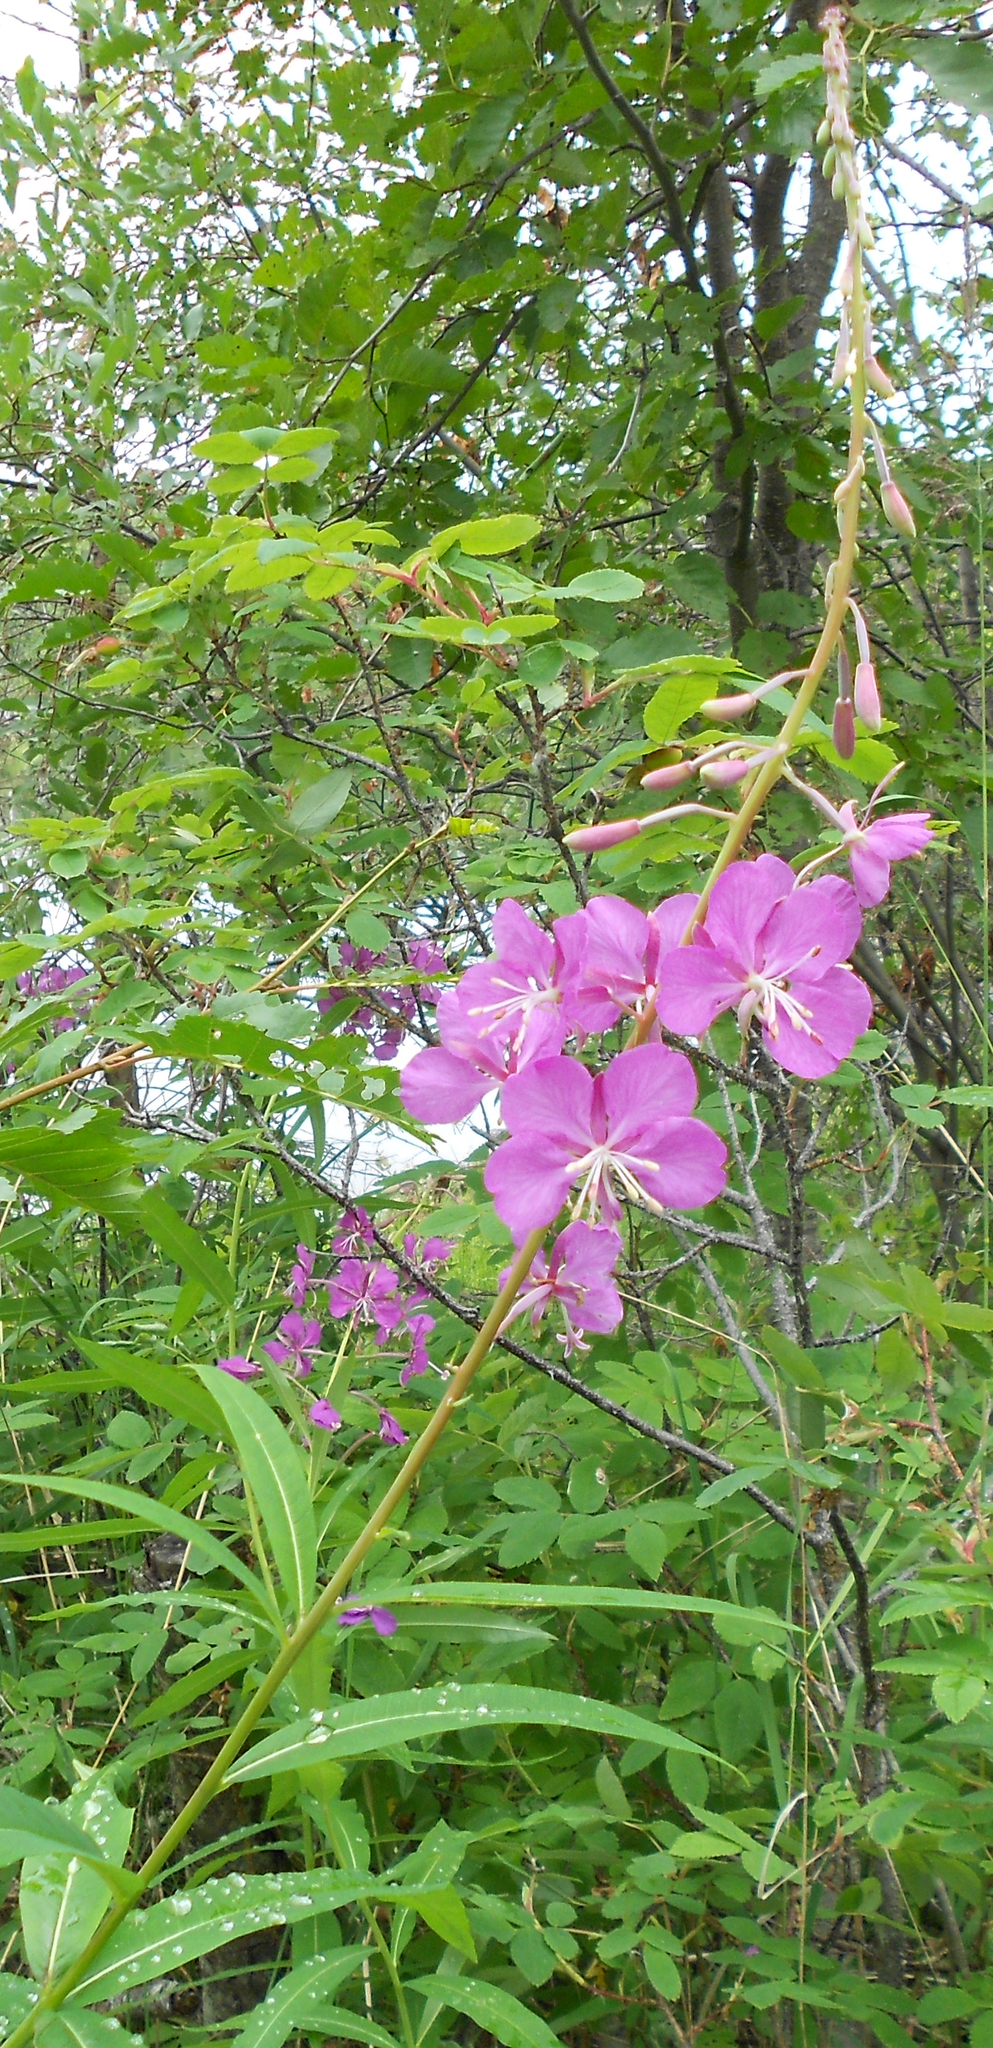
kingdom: Plantae
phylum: Tracheophyta
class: Magnoliopsida
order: Myrtales
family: Onagraceae
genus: Chamaenerion
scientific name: Chamaenerion angustifolium
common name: Fireweed
